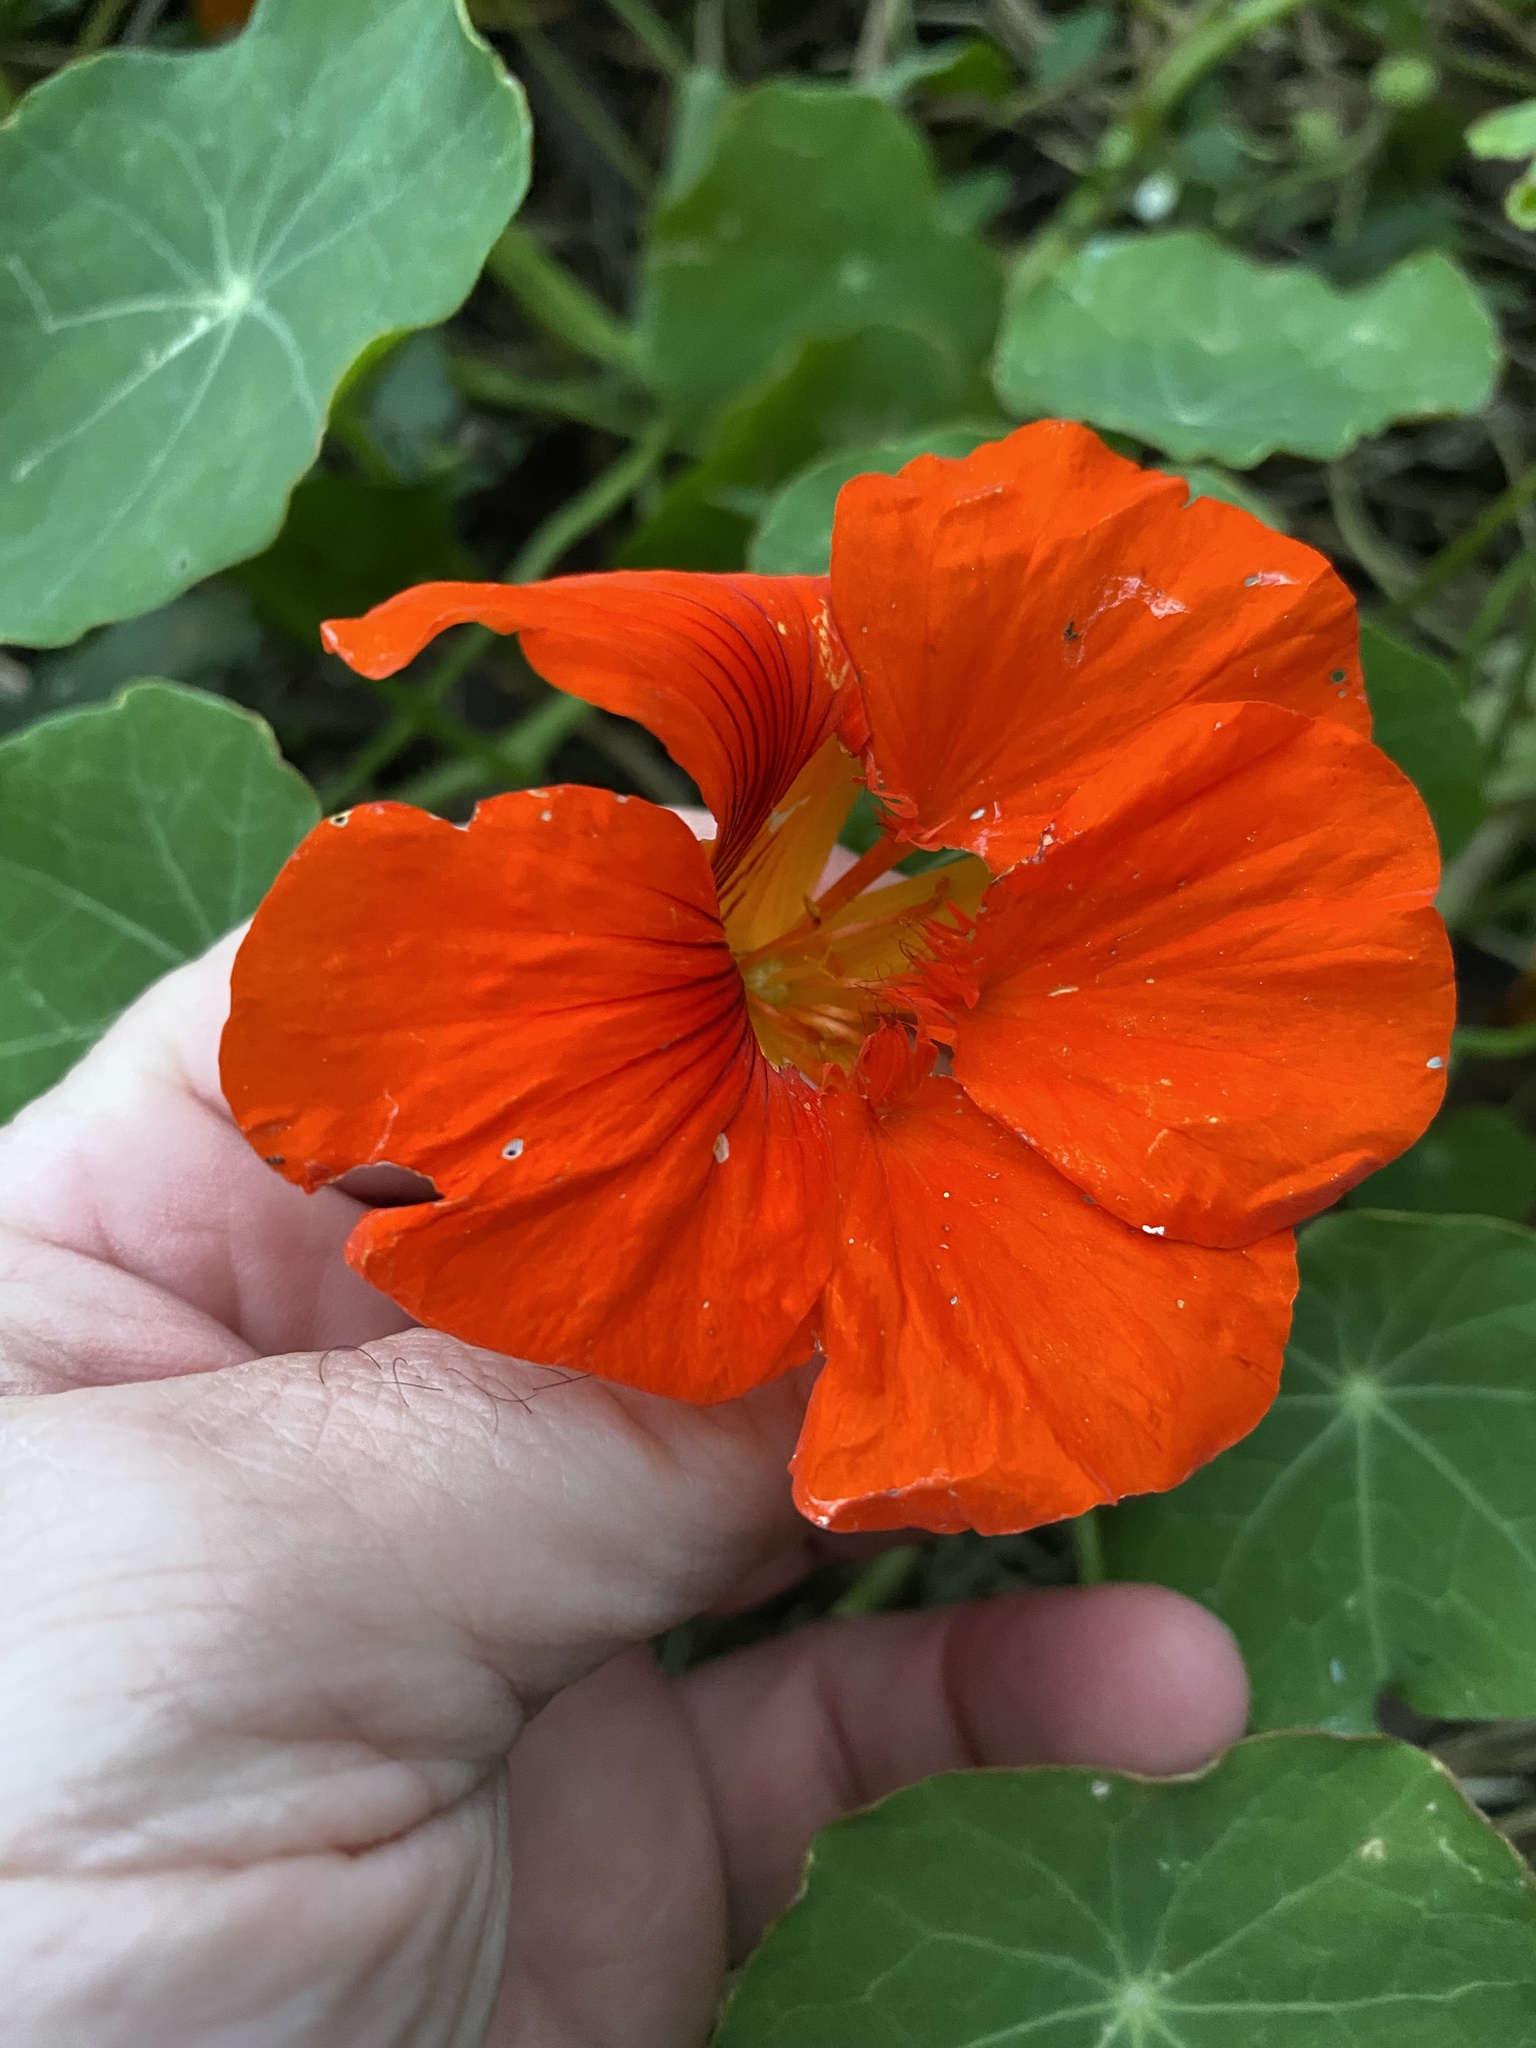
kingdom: Plantae
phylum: Tracheophyta
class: Magnoliopsida
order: Brassicales
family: Tropaeolaceae
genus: Tropaeolum
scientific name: Tropaeolum majus
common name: Nasturtium
